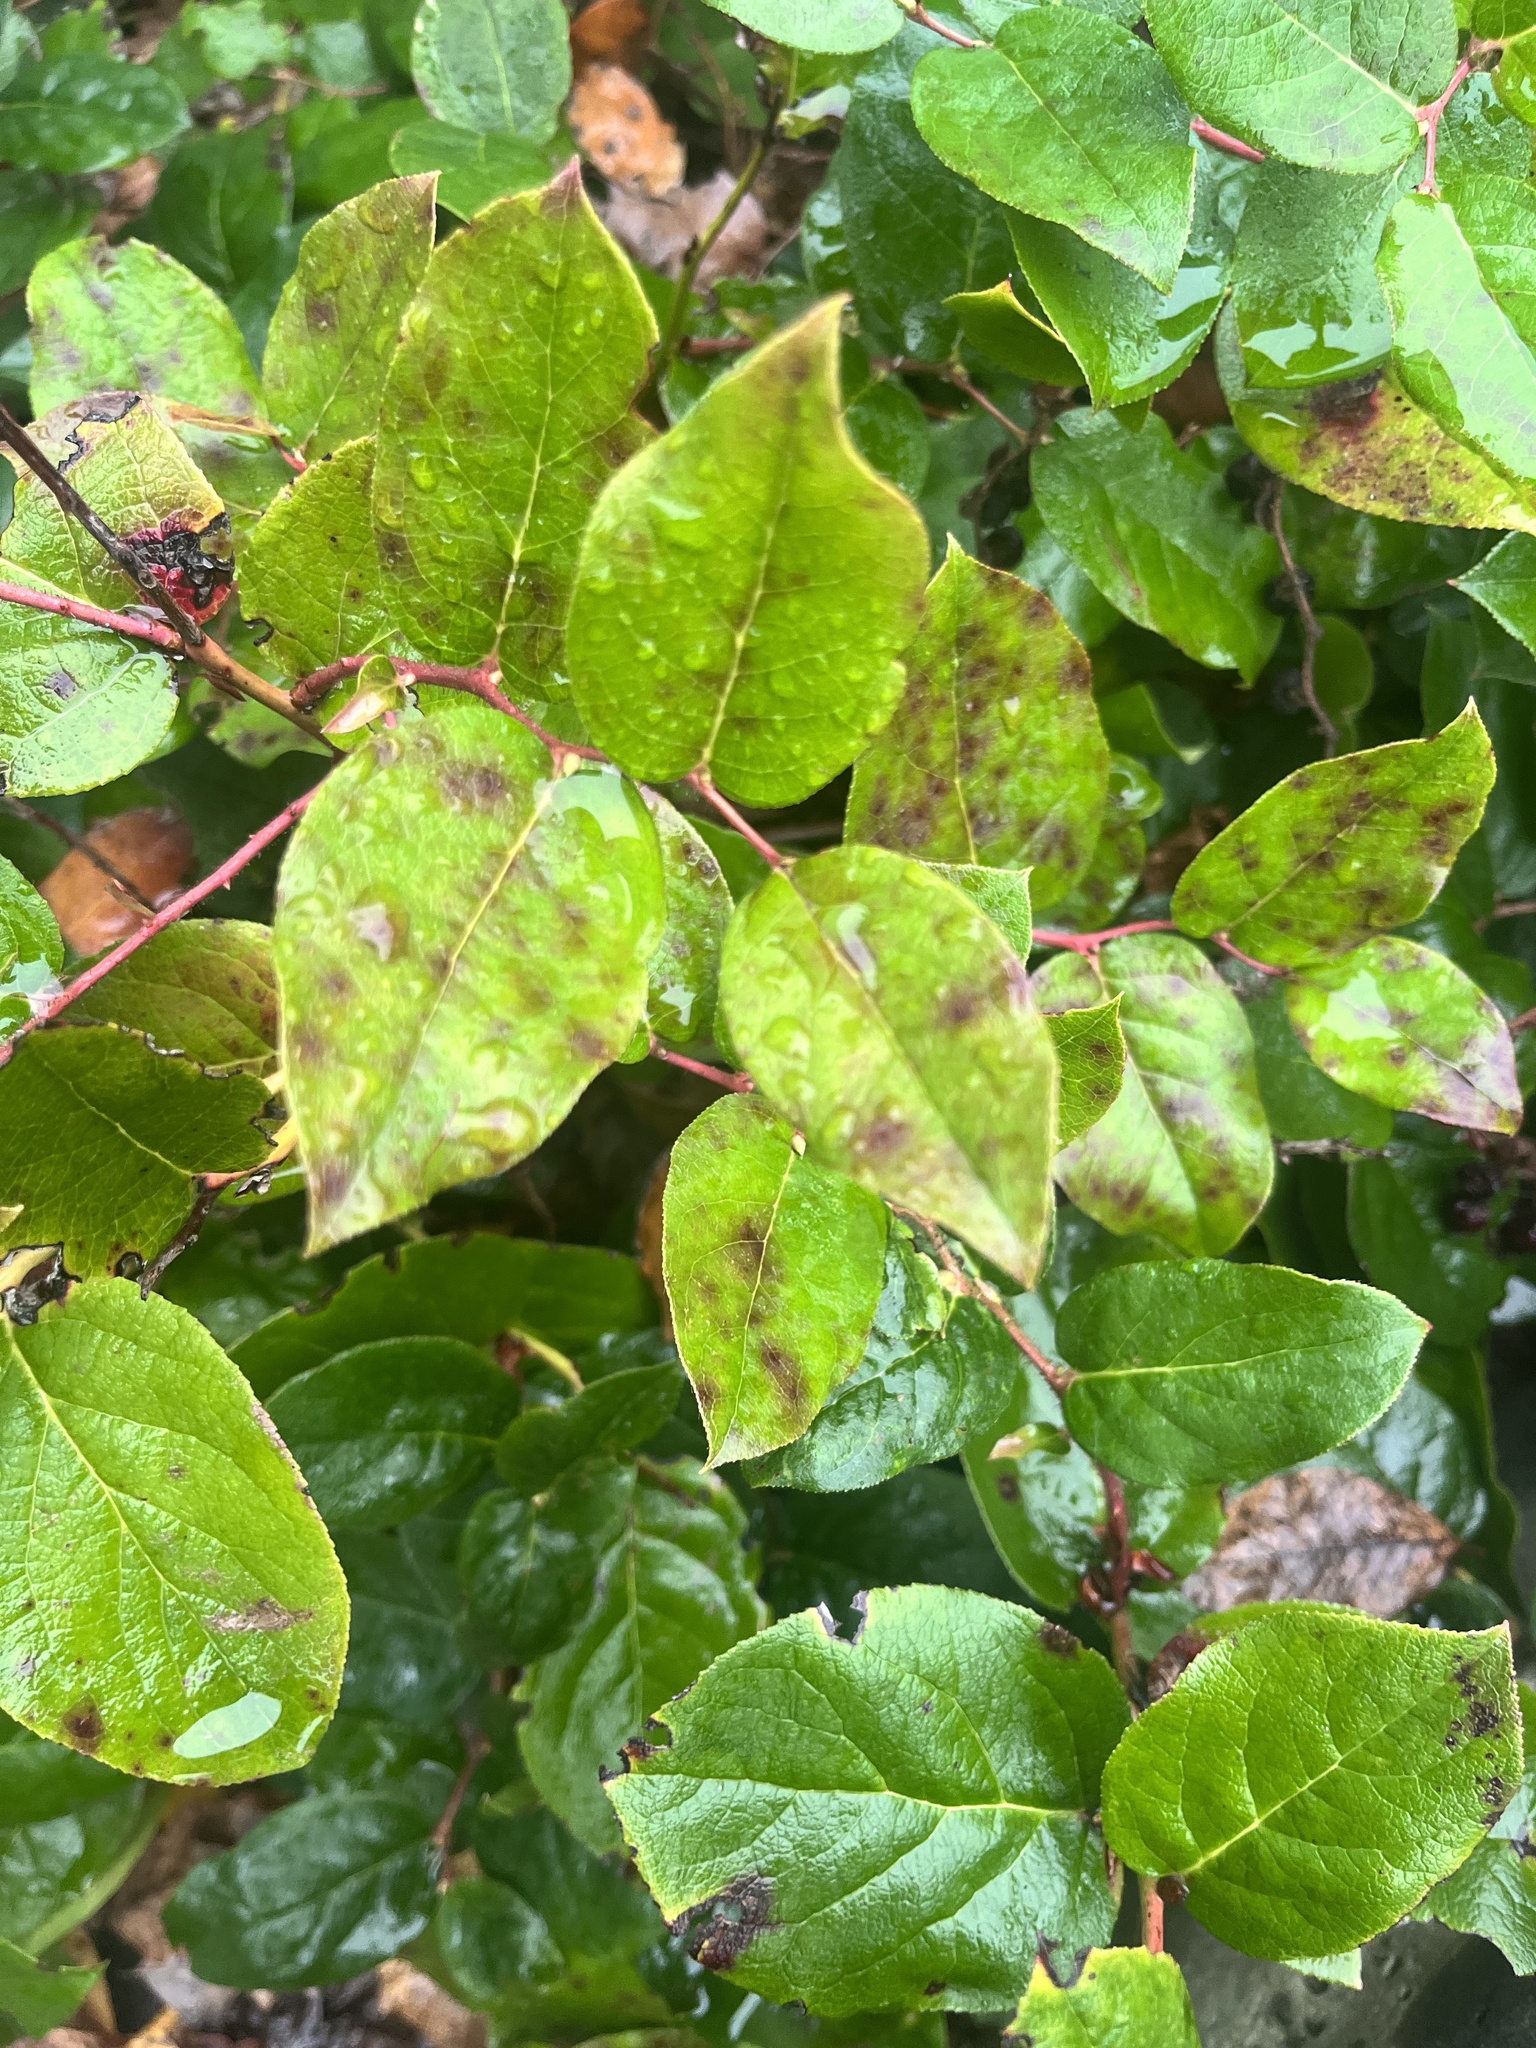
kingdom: Plantae
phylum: Tracheophyta
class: Magnoliopsida
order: Ericales
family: Ericaceae
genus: Gaultheria
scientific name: Gaultheria shallon
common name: Shallon
